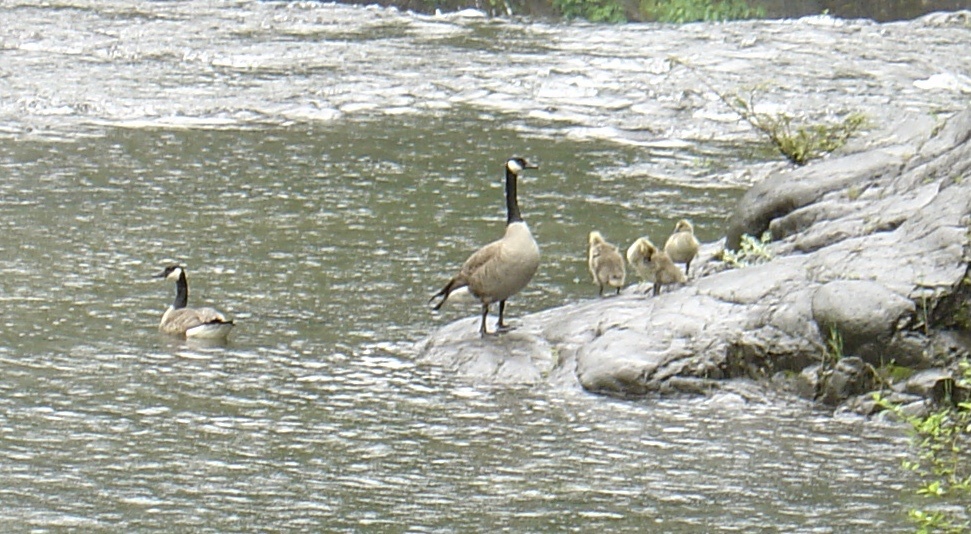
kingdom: Animalia
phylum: Chordata
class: Aves
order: Anseriformes
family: Anatidae
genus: Branta
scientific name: Branta canadensis
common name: Canada goose
